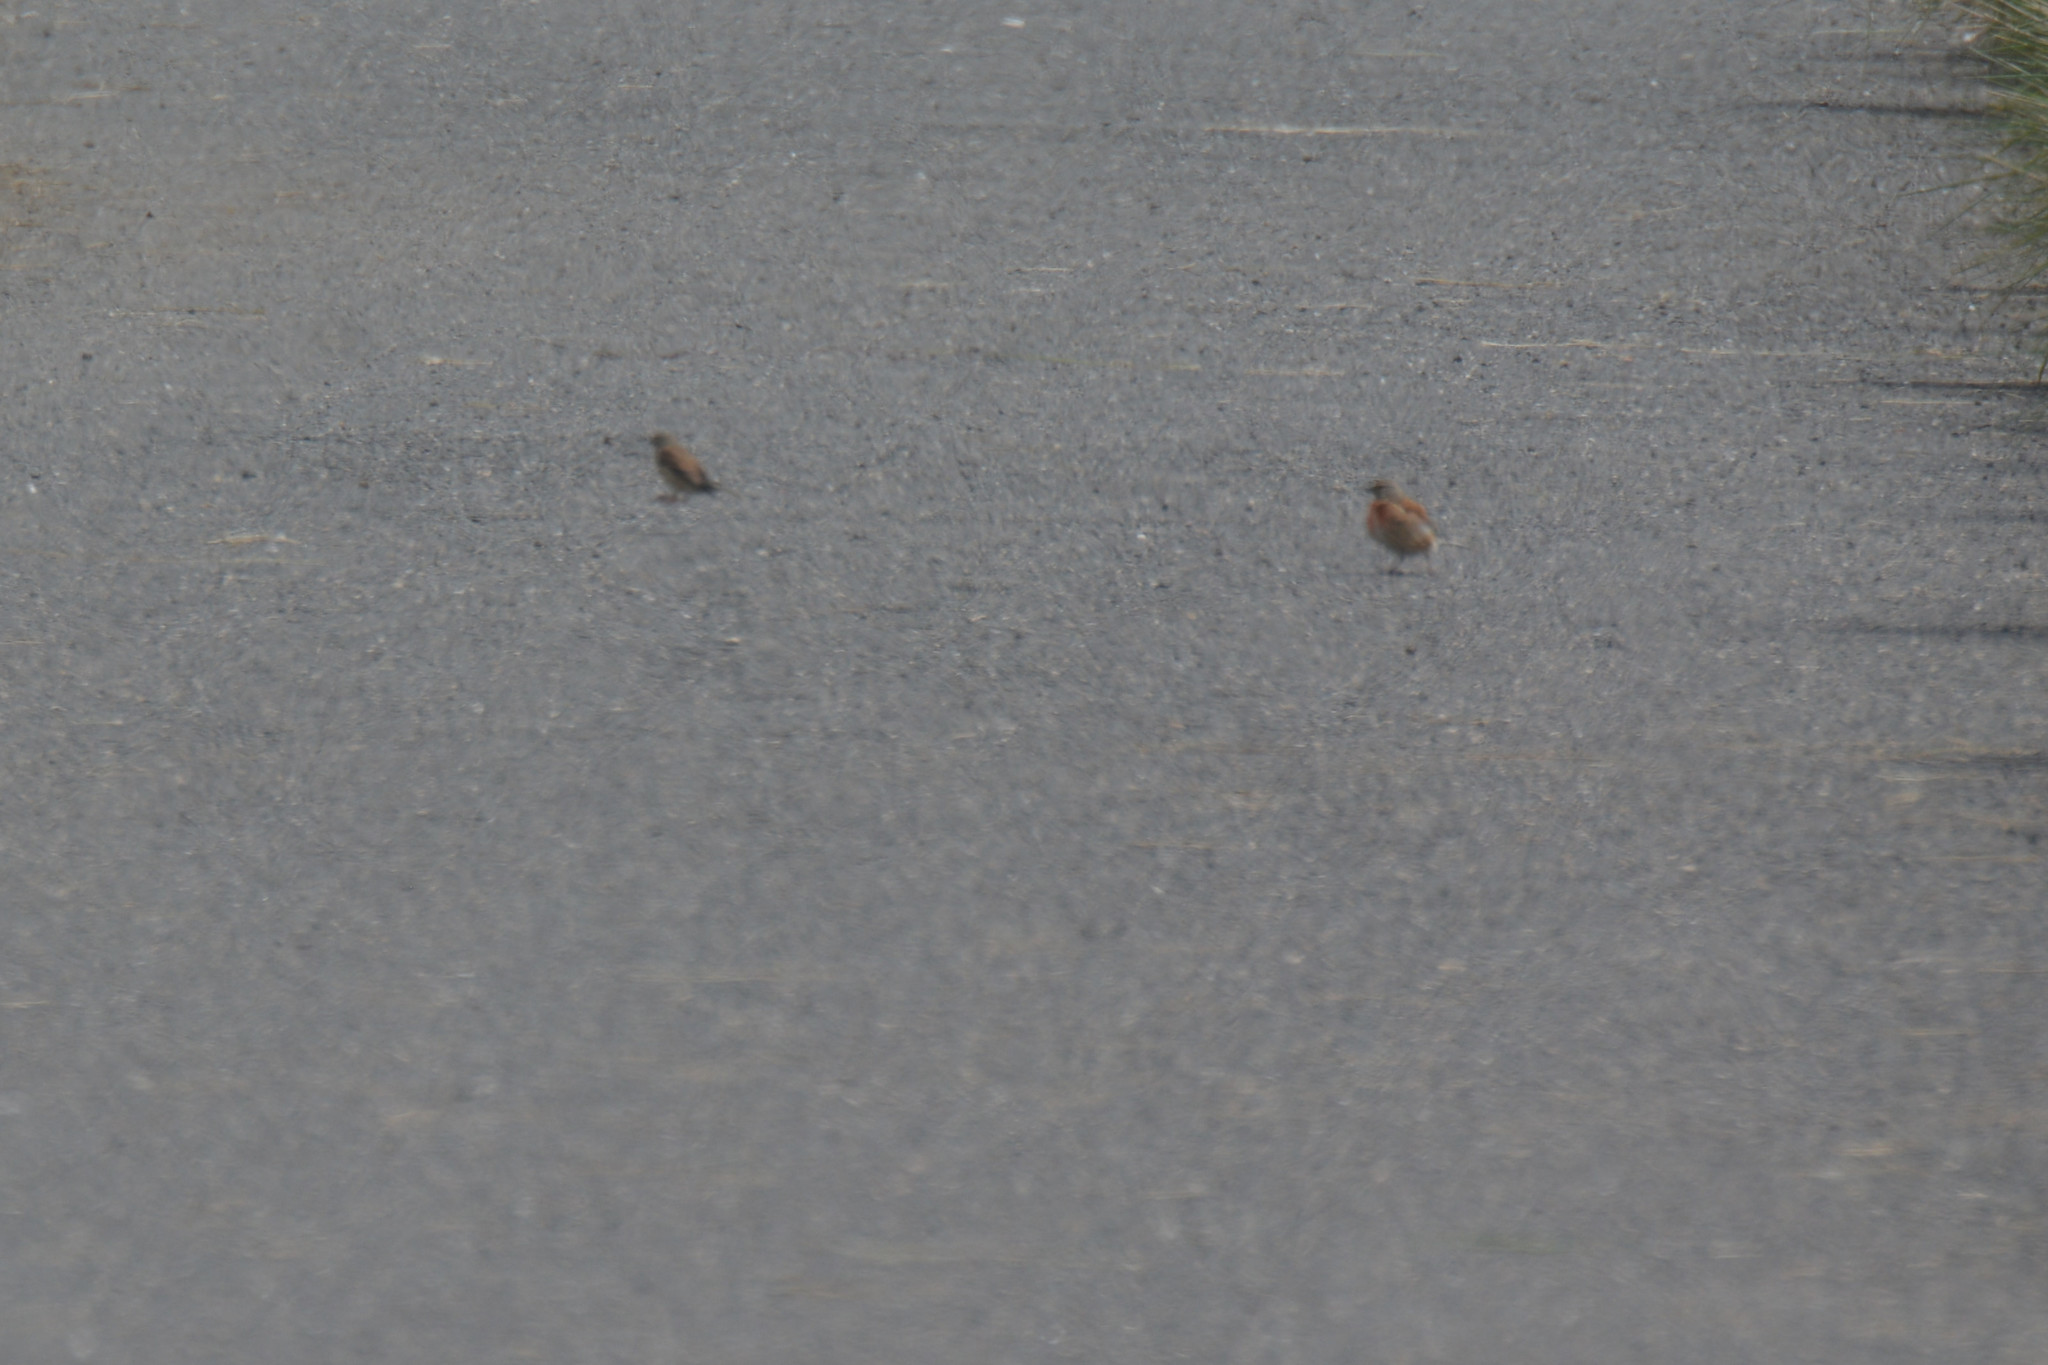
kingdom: Animalia
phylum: Chordata
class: Aves
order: Passeriformes
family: Fringillidae
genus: Linaria
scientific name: Linaria cannabina
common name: Common linnet
